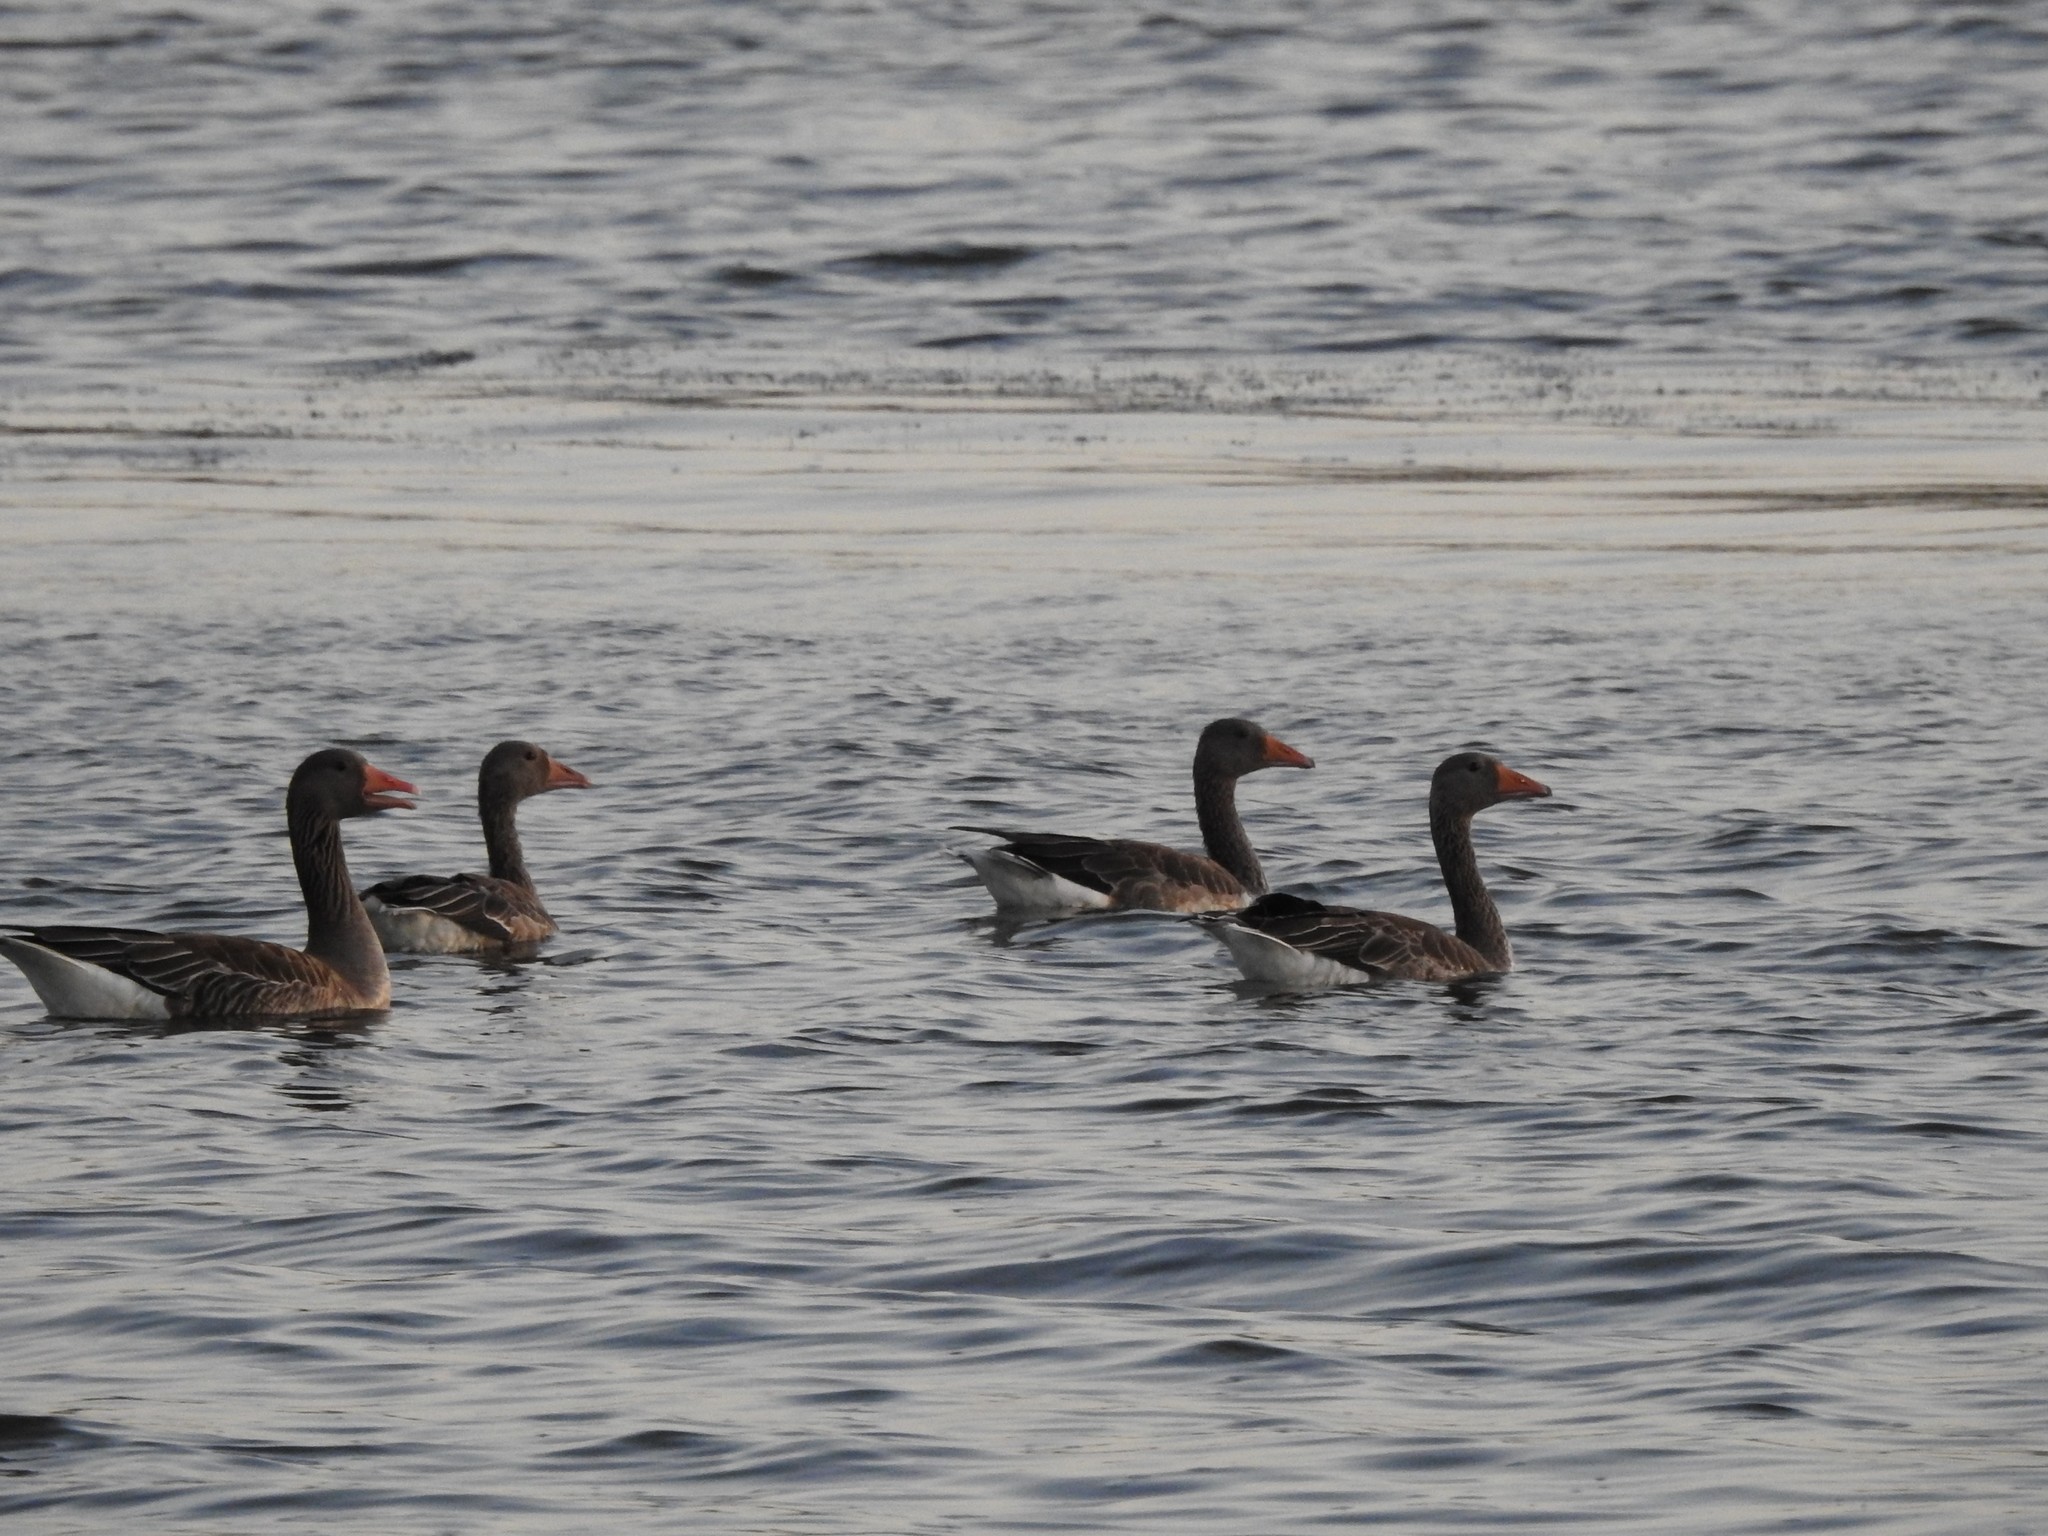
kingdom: Animalia
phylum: Chordata
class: Aves
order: Anseriformes
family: Anatidae
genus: Anser
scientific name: Anser anser
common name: Greylag goose
